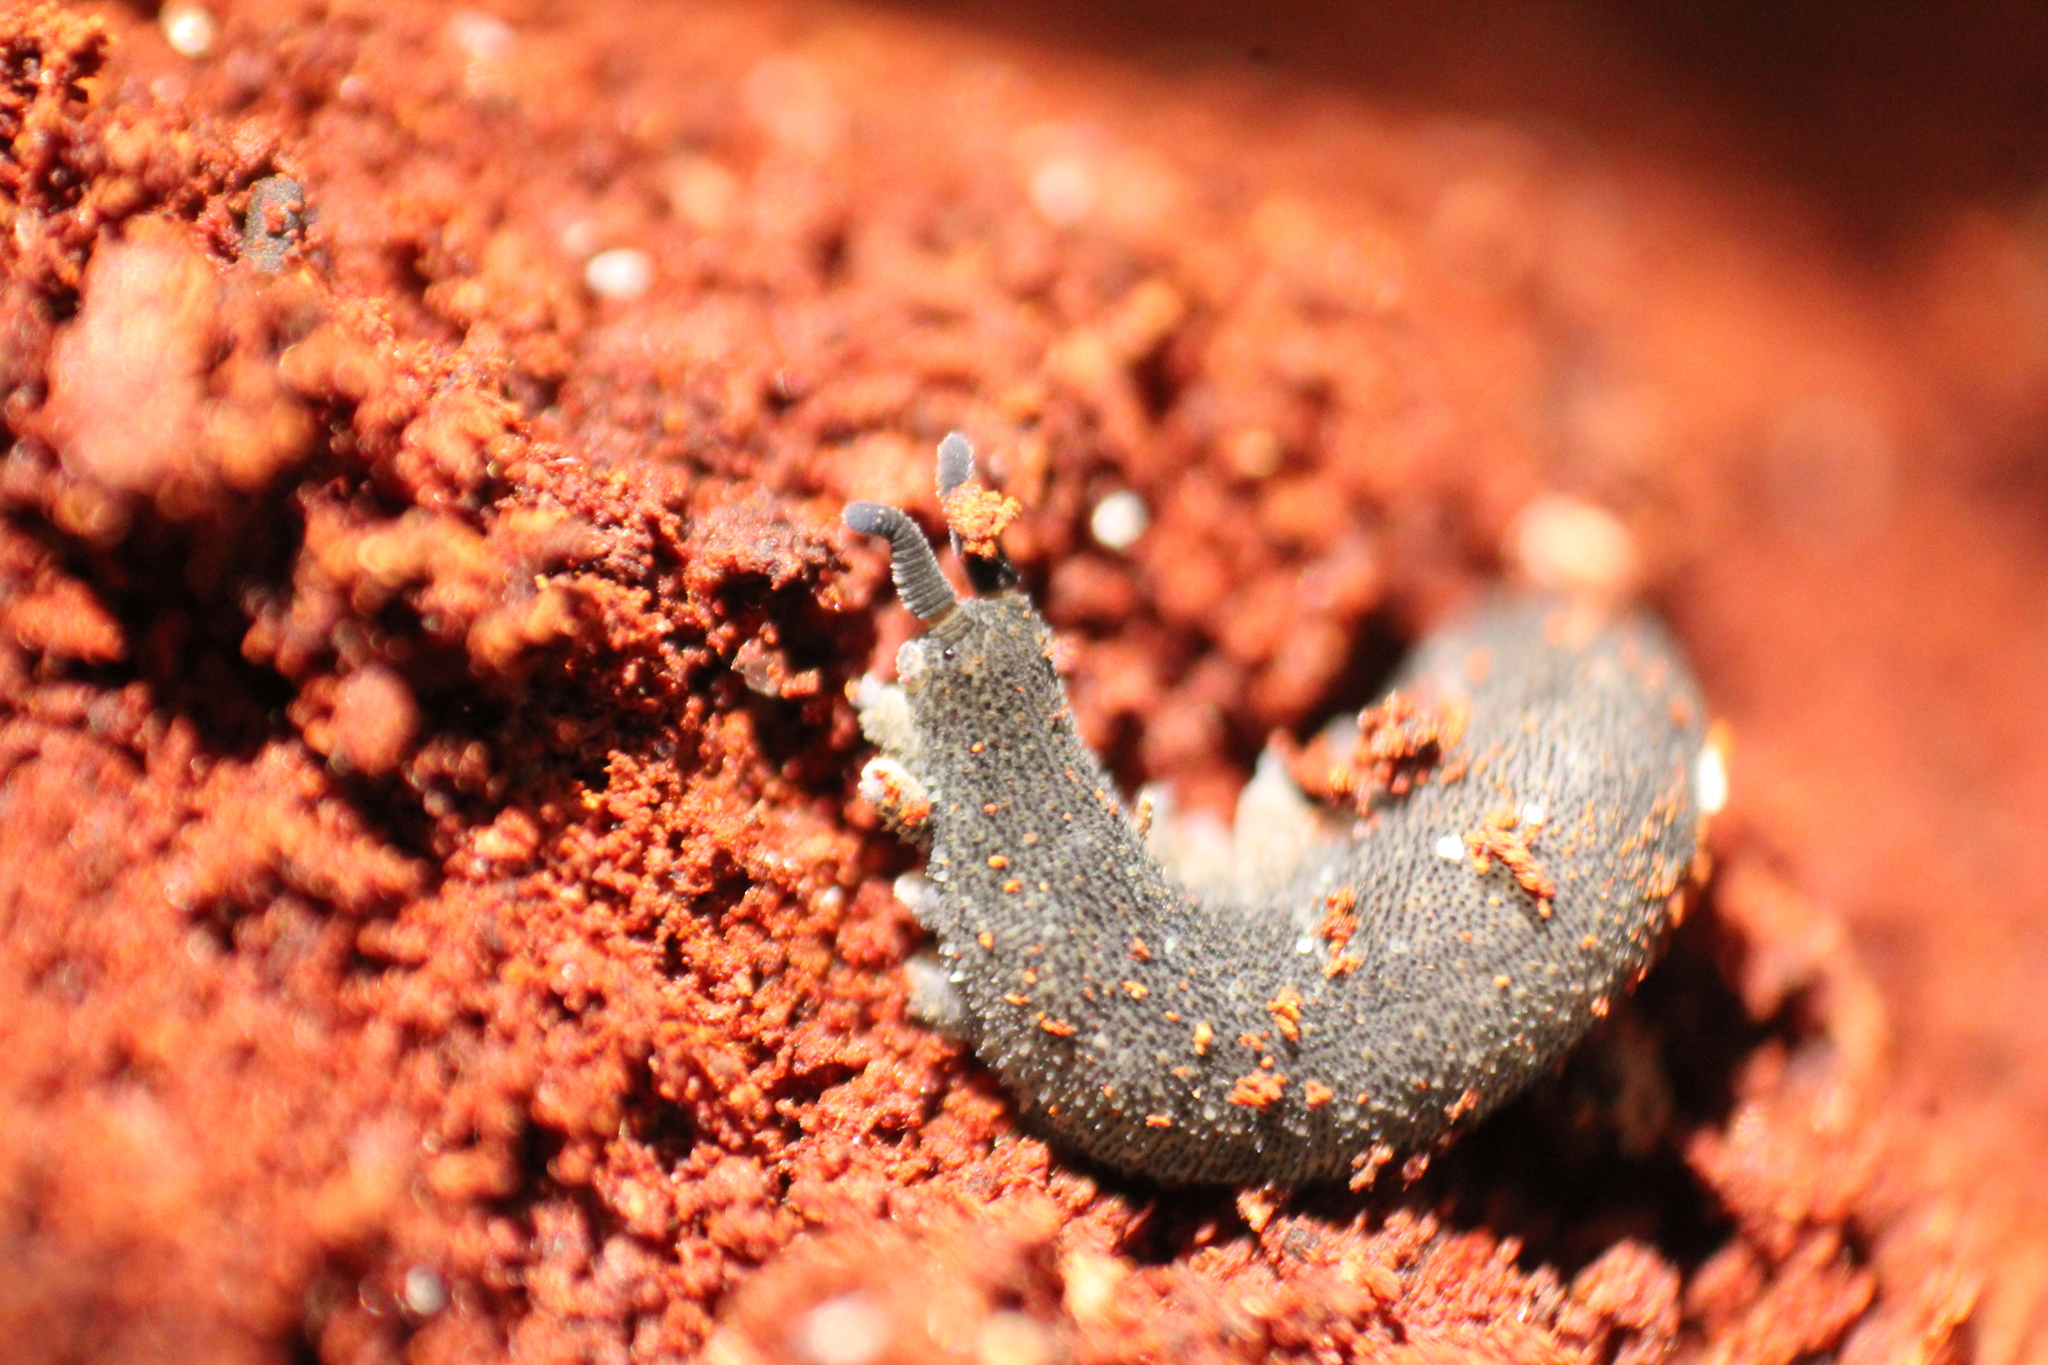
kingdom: Animalia
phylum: Onychophora
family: Peripatopsidae
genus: Kumbadjena
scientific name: Kumbadjena extrema
